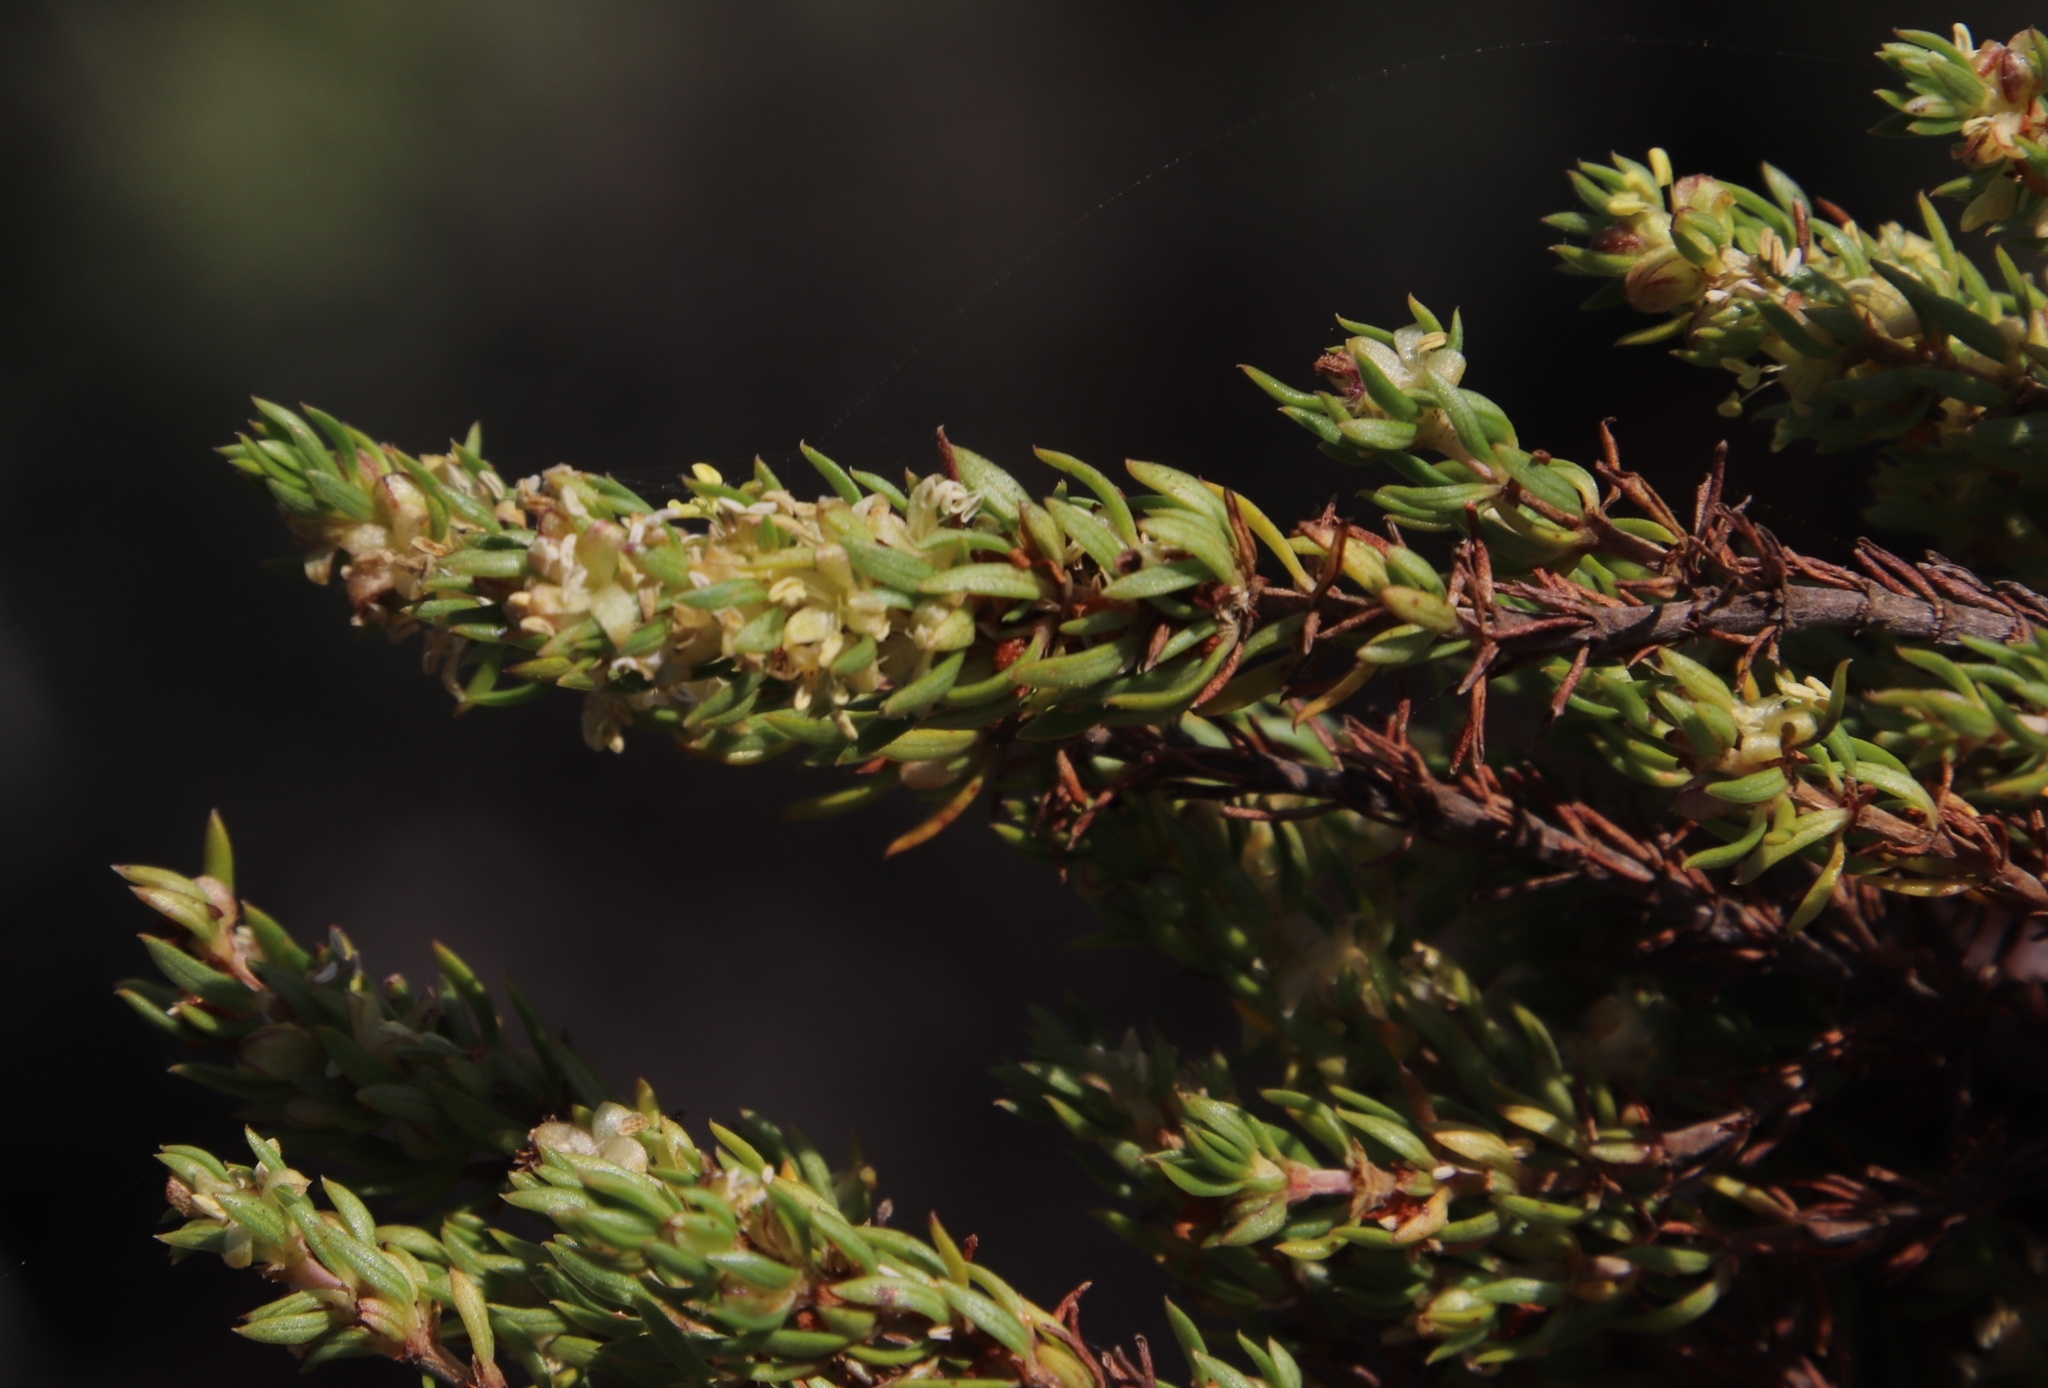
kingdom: Plantae
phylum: Tracheophyta
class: Magnoliopsida
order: Gentianales
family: Rubiaceae
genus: Anthospermum
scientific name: Anthospermum aethiopicum
